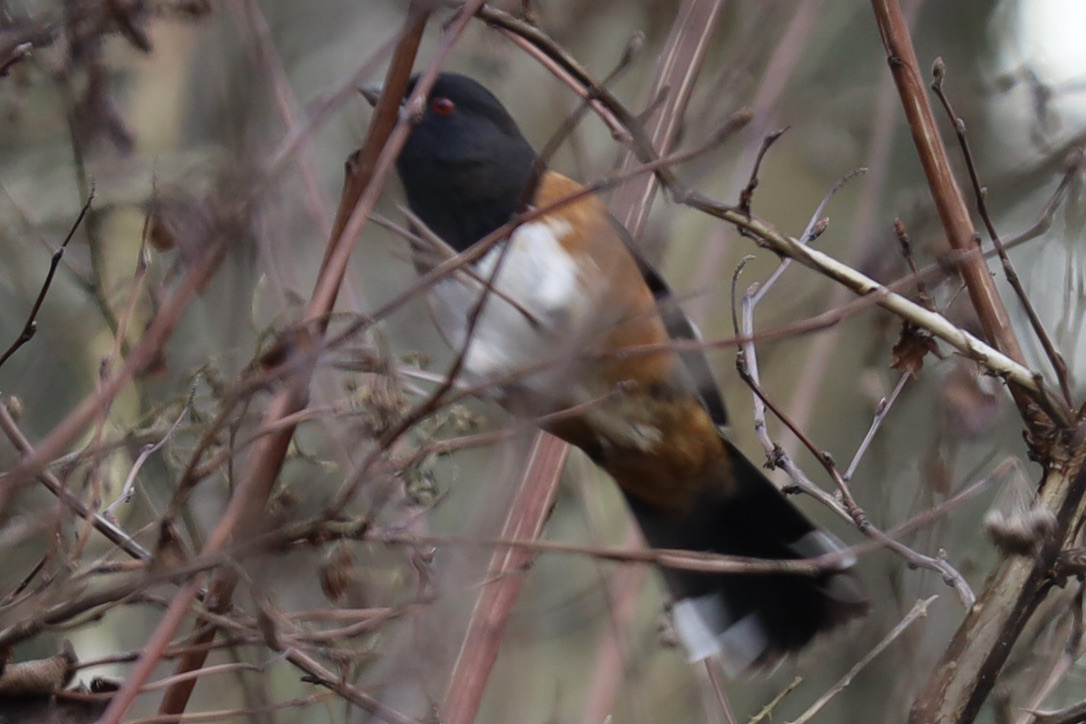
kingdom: Animalia
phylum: Chordata
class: Aves
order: Passeriformes
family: Passerellidae
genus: Pipilo
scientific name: Pipilo maculatus
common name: Spotted towhee
